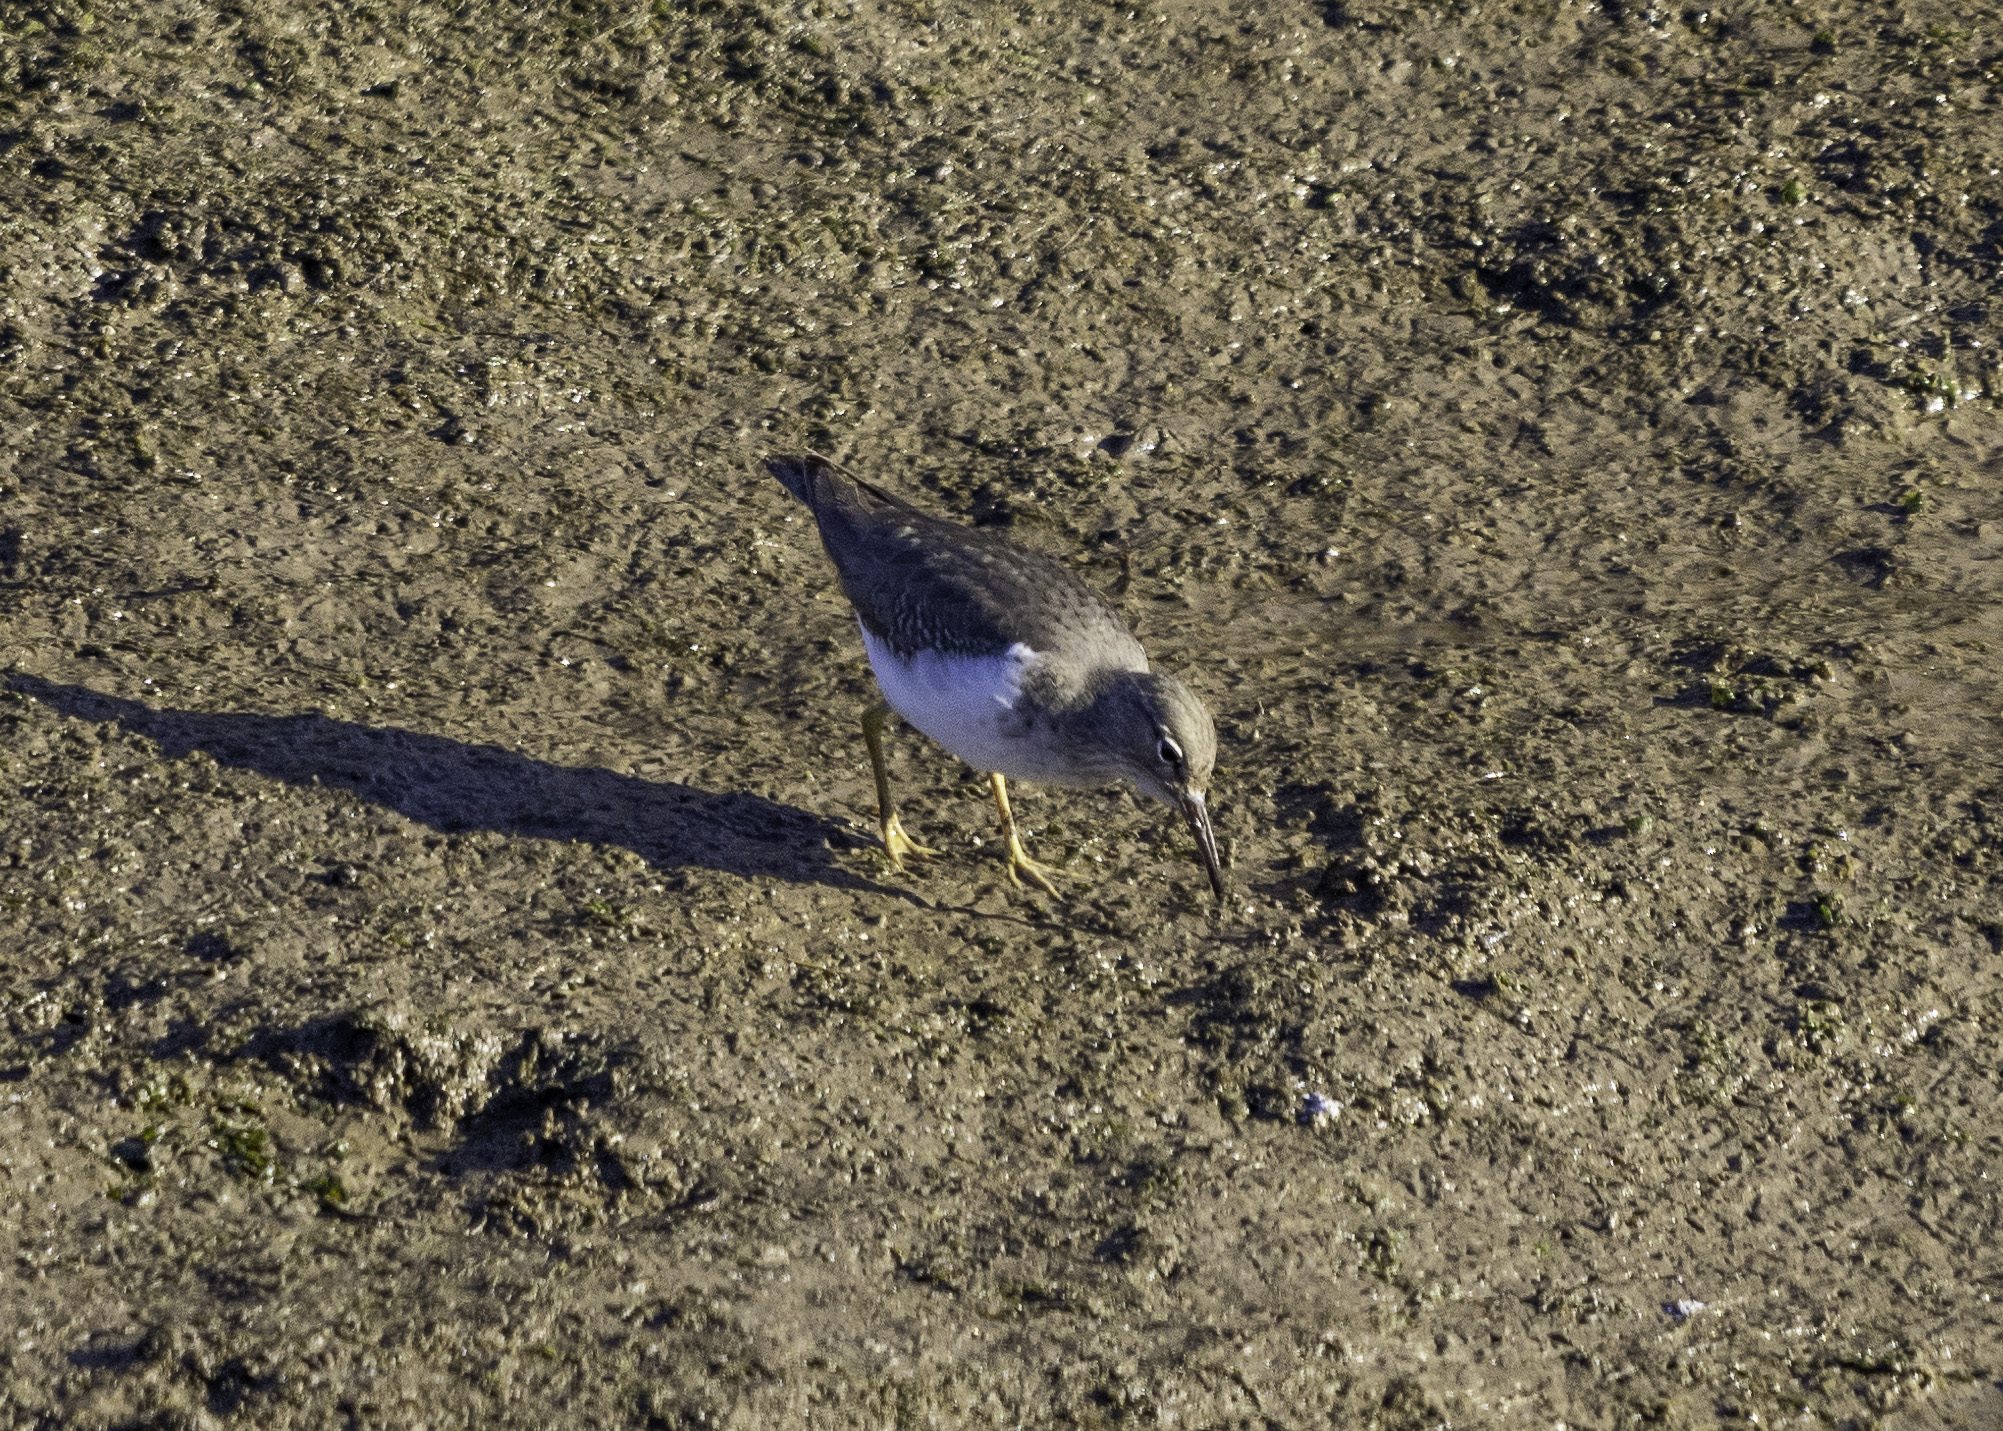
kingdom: Animalia
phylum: Chordata
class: Aves
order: Charadriiformes
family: Scolopacidae
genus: Actitis
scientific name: Actitis macularius
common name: Spotted sandpiper
